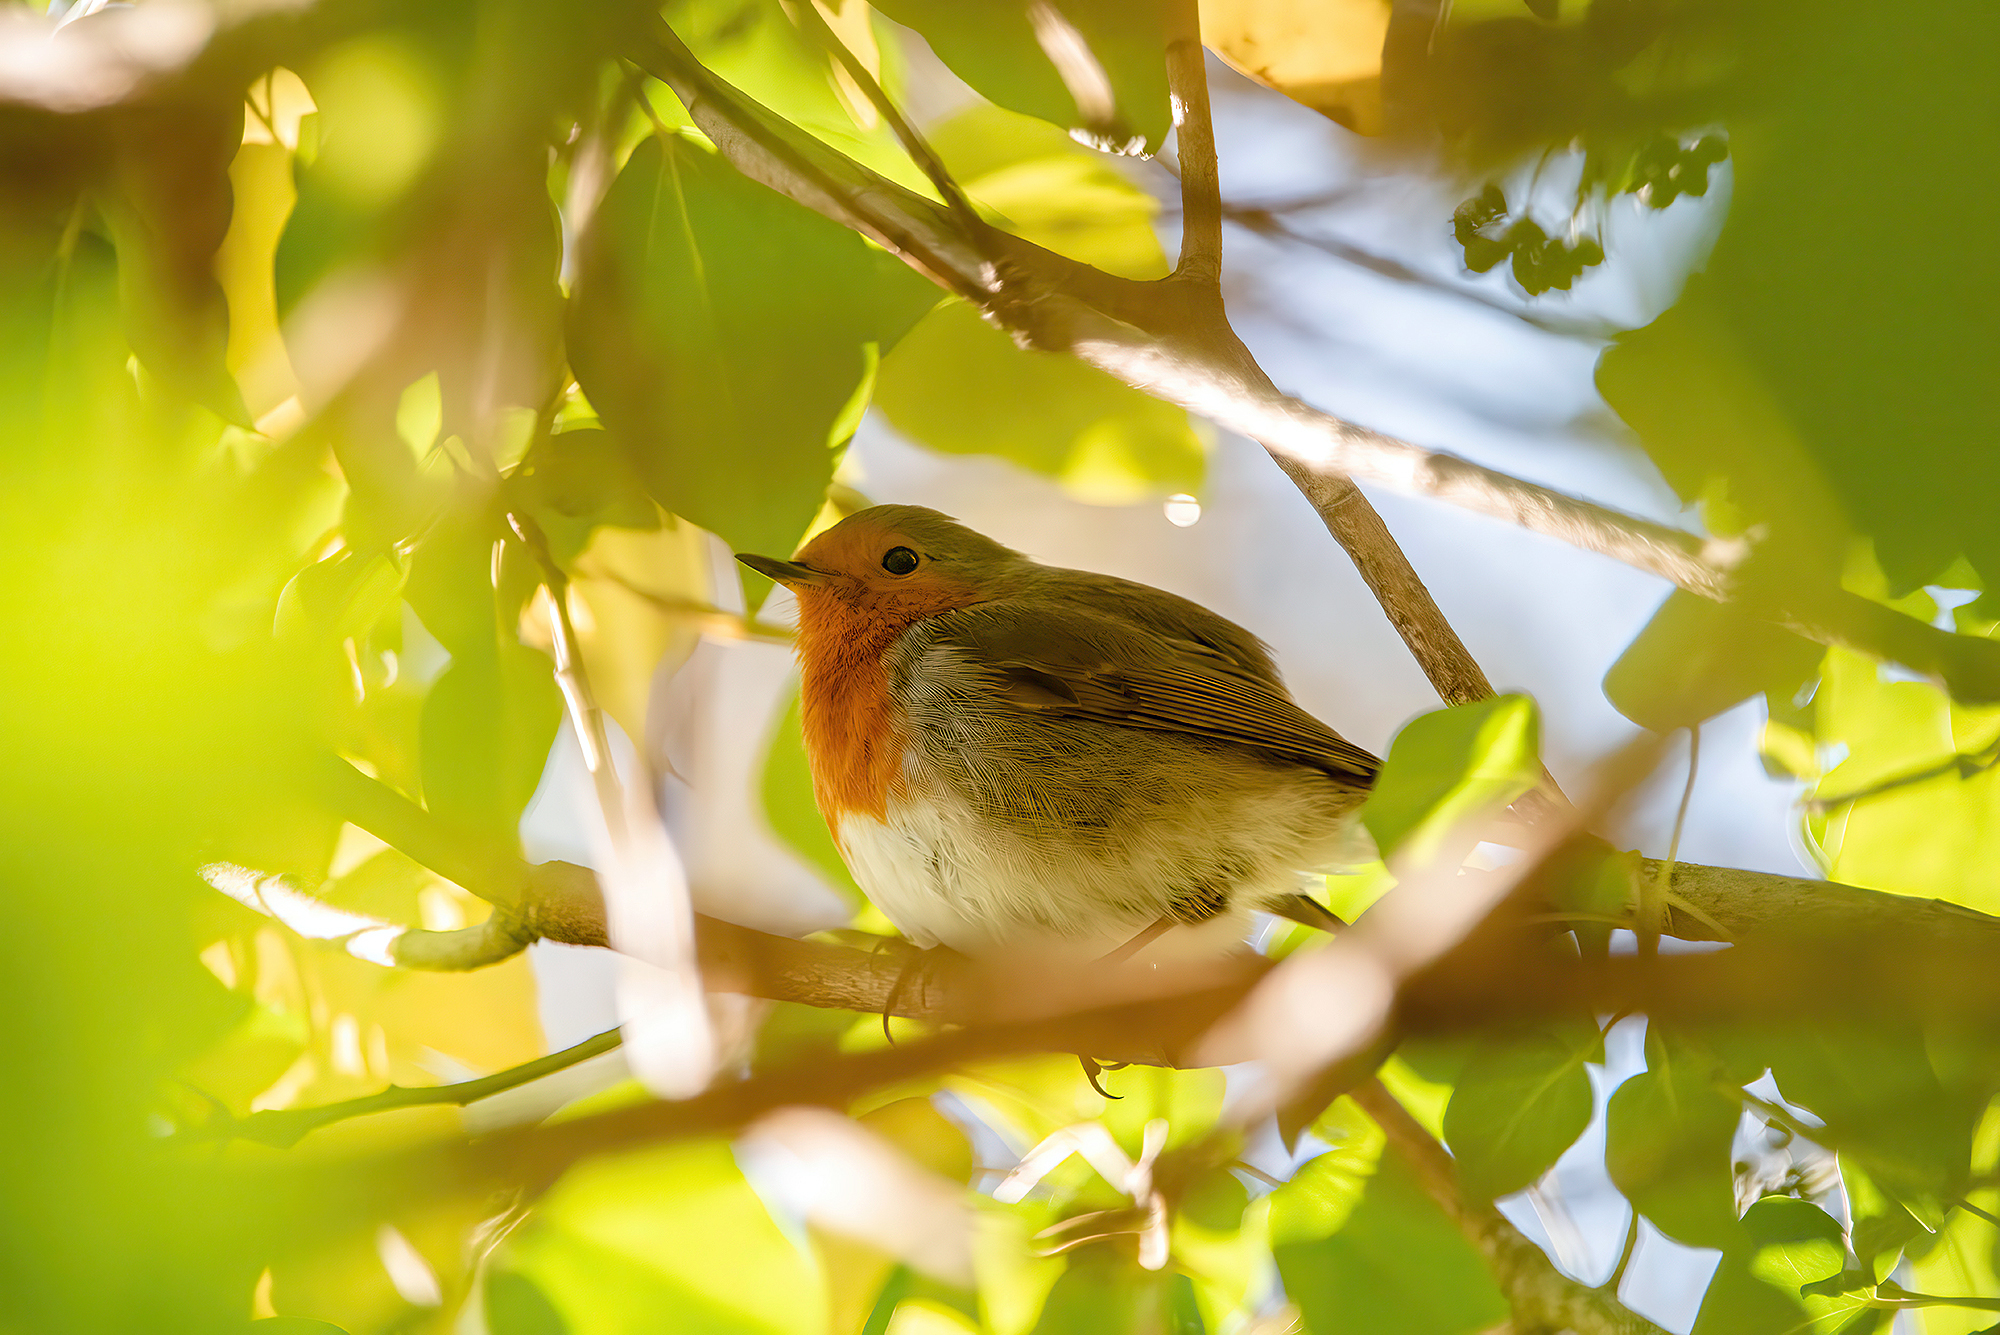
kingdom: Animalia
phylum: Chordata
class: Aves
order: Passeriformes
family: Muscicapidae
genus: Erithacus
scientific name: Erithacus rubecula
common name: European robin
